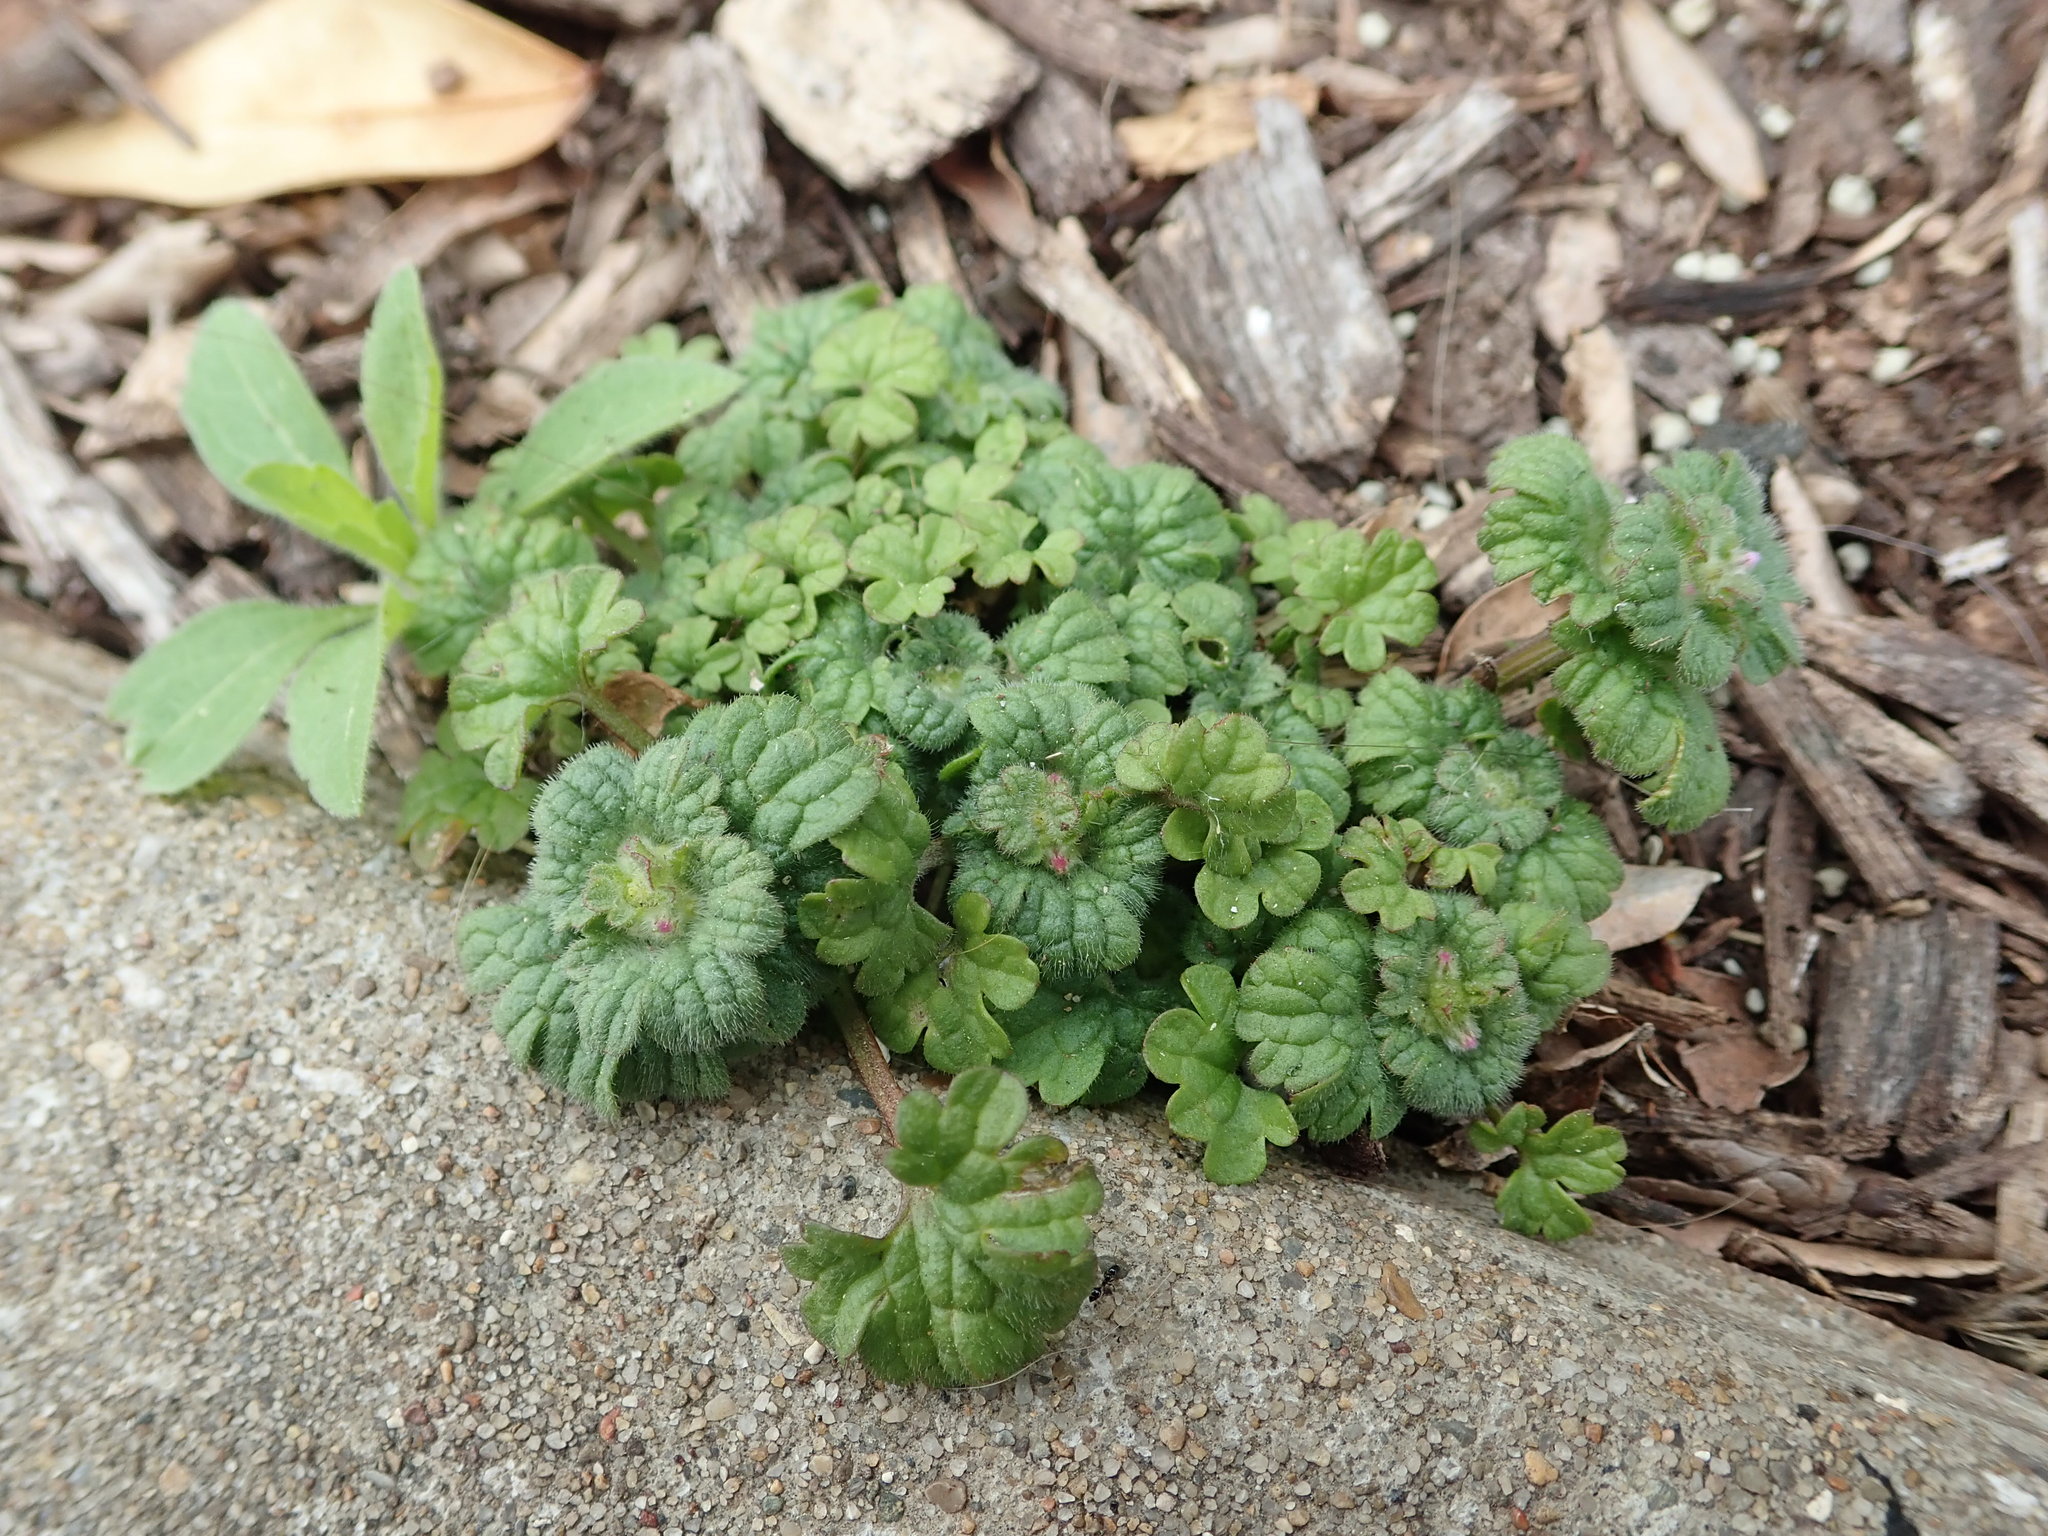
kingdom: Plantae
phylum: Tracheophyta
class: Magnoliopsida
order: Lamiales
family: Lamiaceae
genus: Lamium
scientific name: Lamium amplexicaule
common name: Henbit dead-nettle
